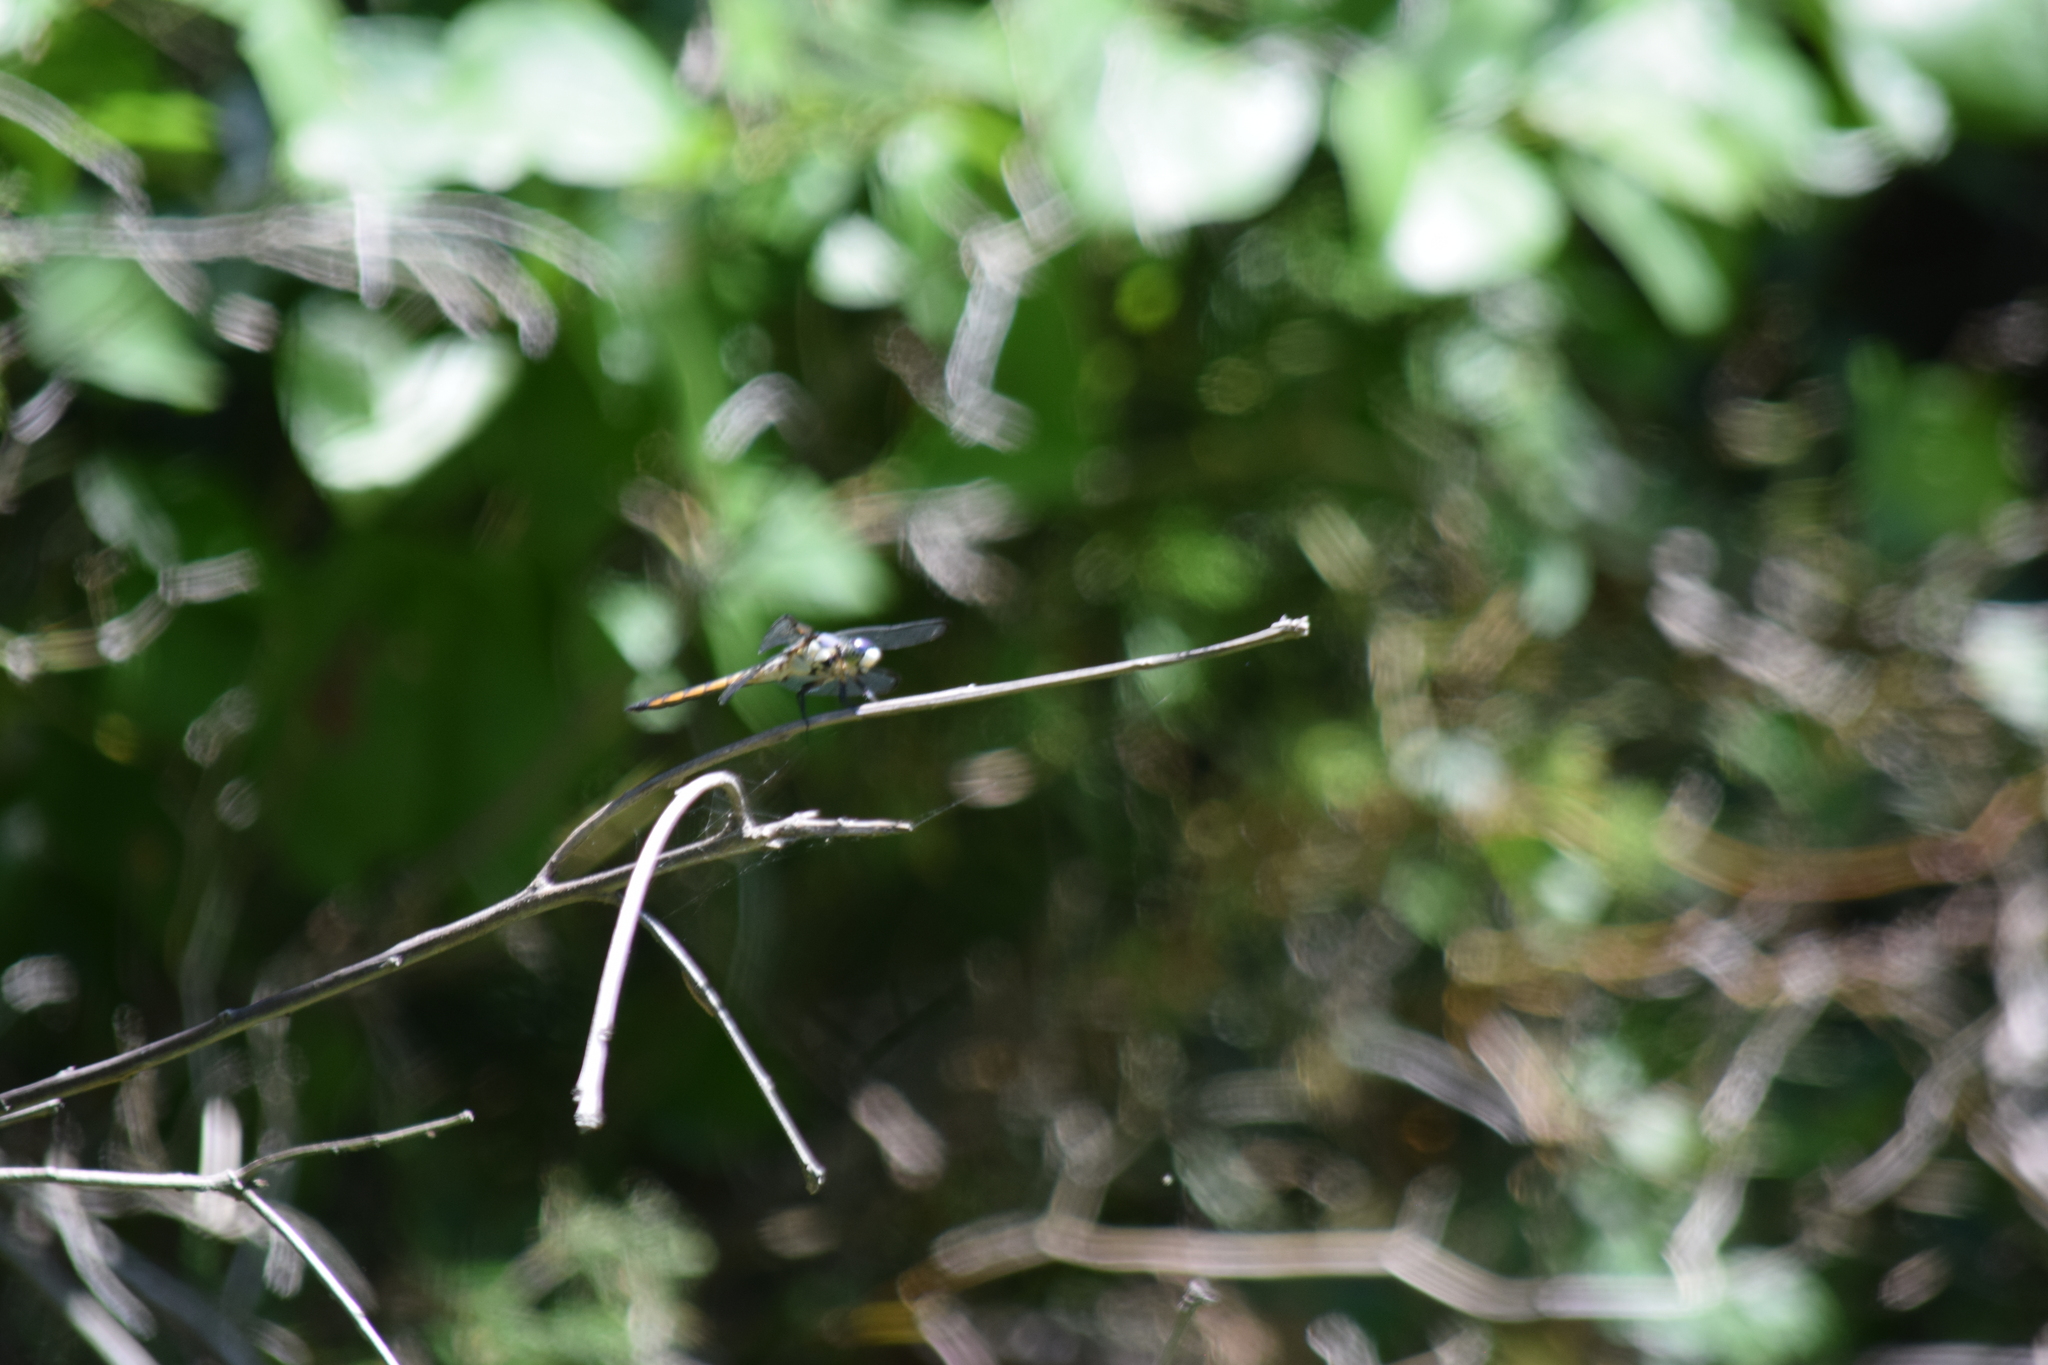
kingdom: Animalia
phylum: Arthropoda
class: Insecta
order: Odonata
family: Libellulidae
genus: Libellula
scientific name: Libellula vibrans
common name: Great blue skimmer
